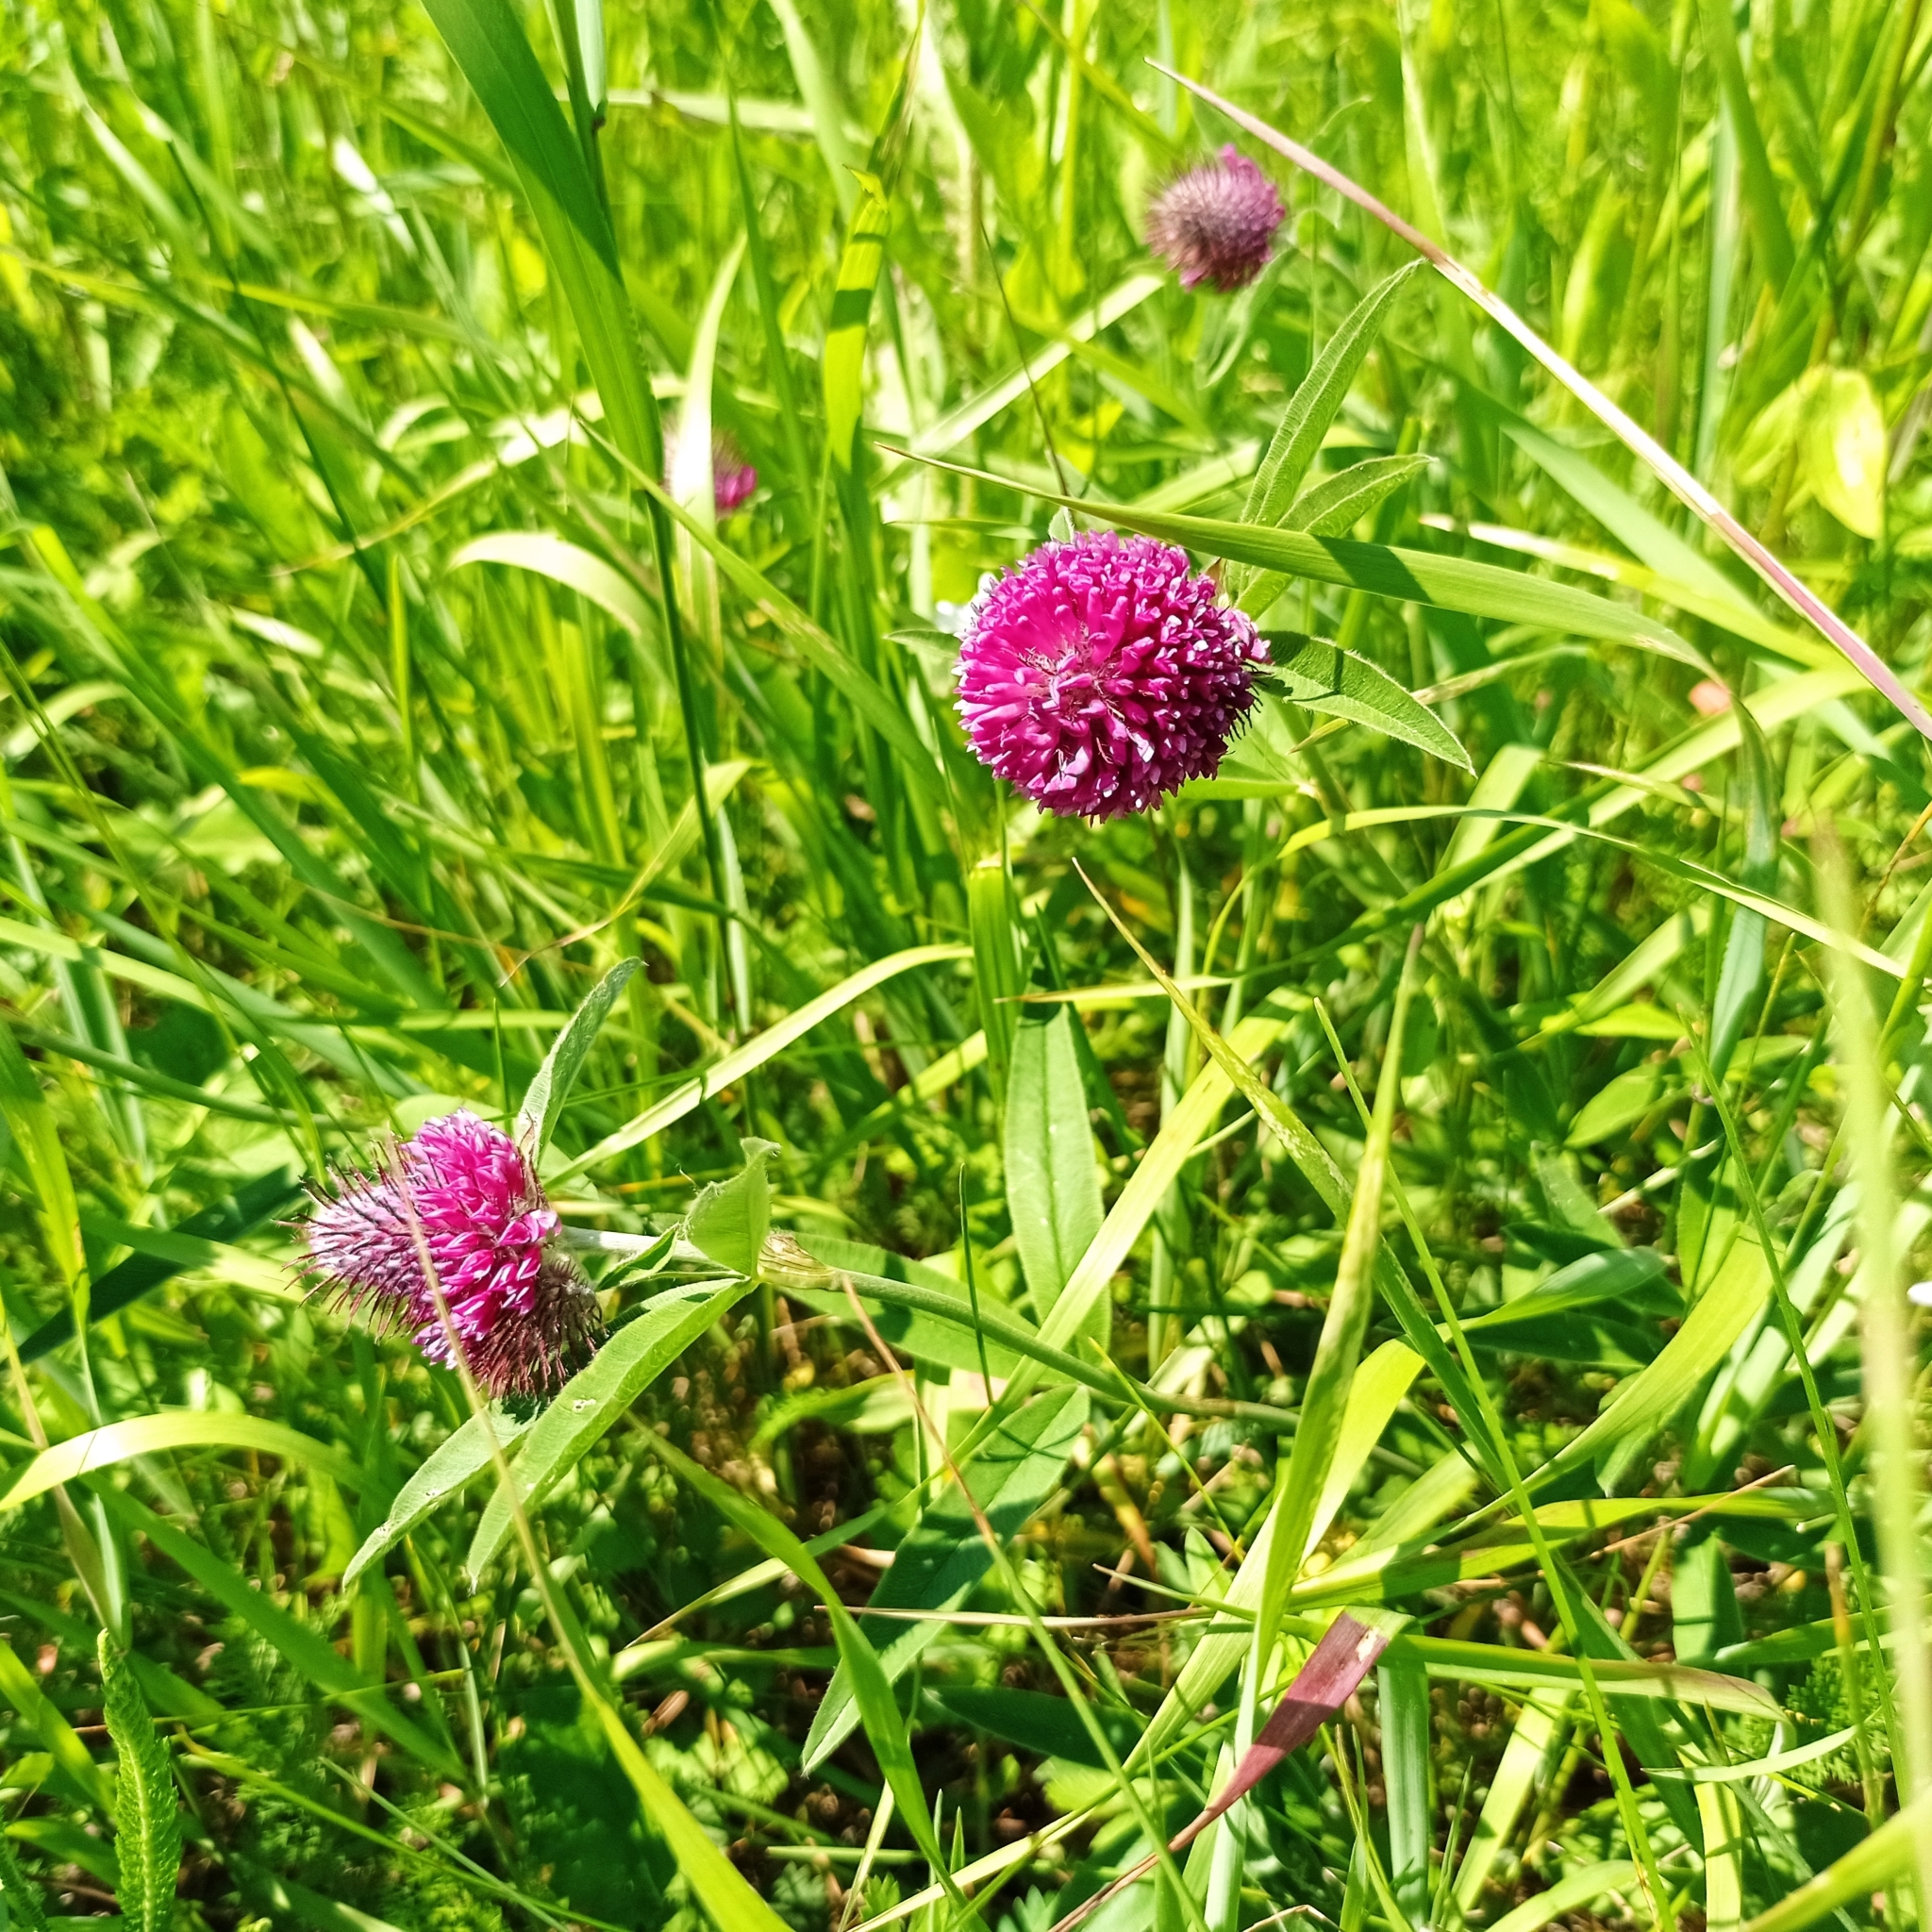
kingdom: Plantae
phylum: Tracheophyta
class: Magnoliopsida
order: Fabales
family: Fabaceae
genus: Trifolium
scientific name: Trifolium alpestre
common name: Owl-head clover
